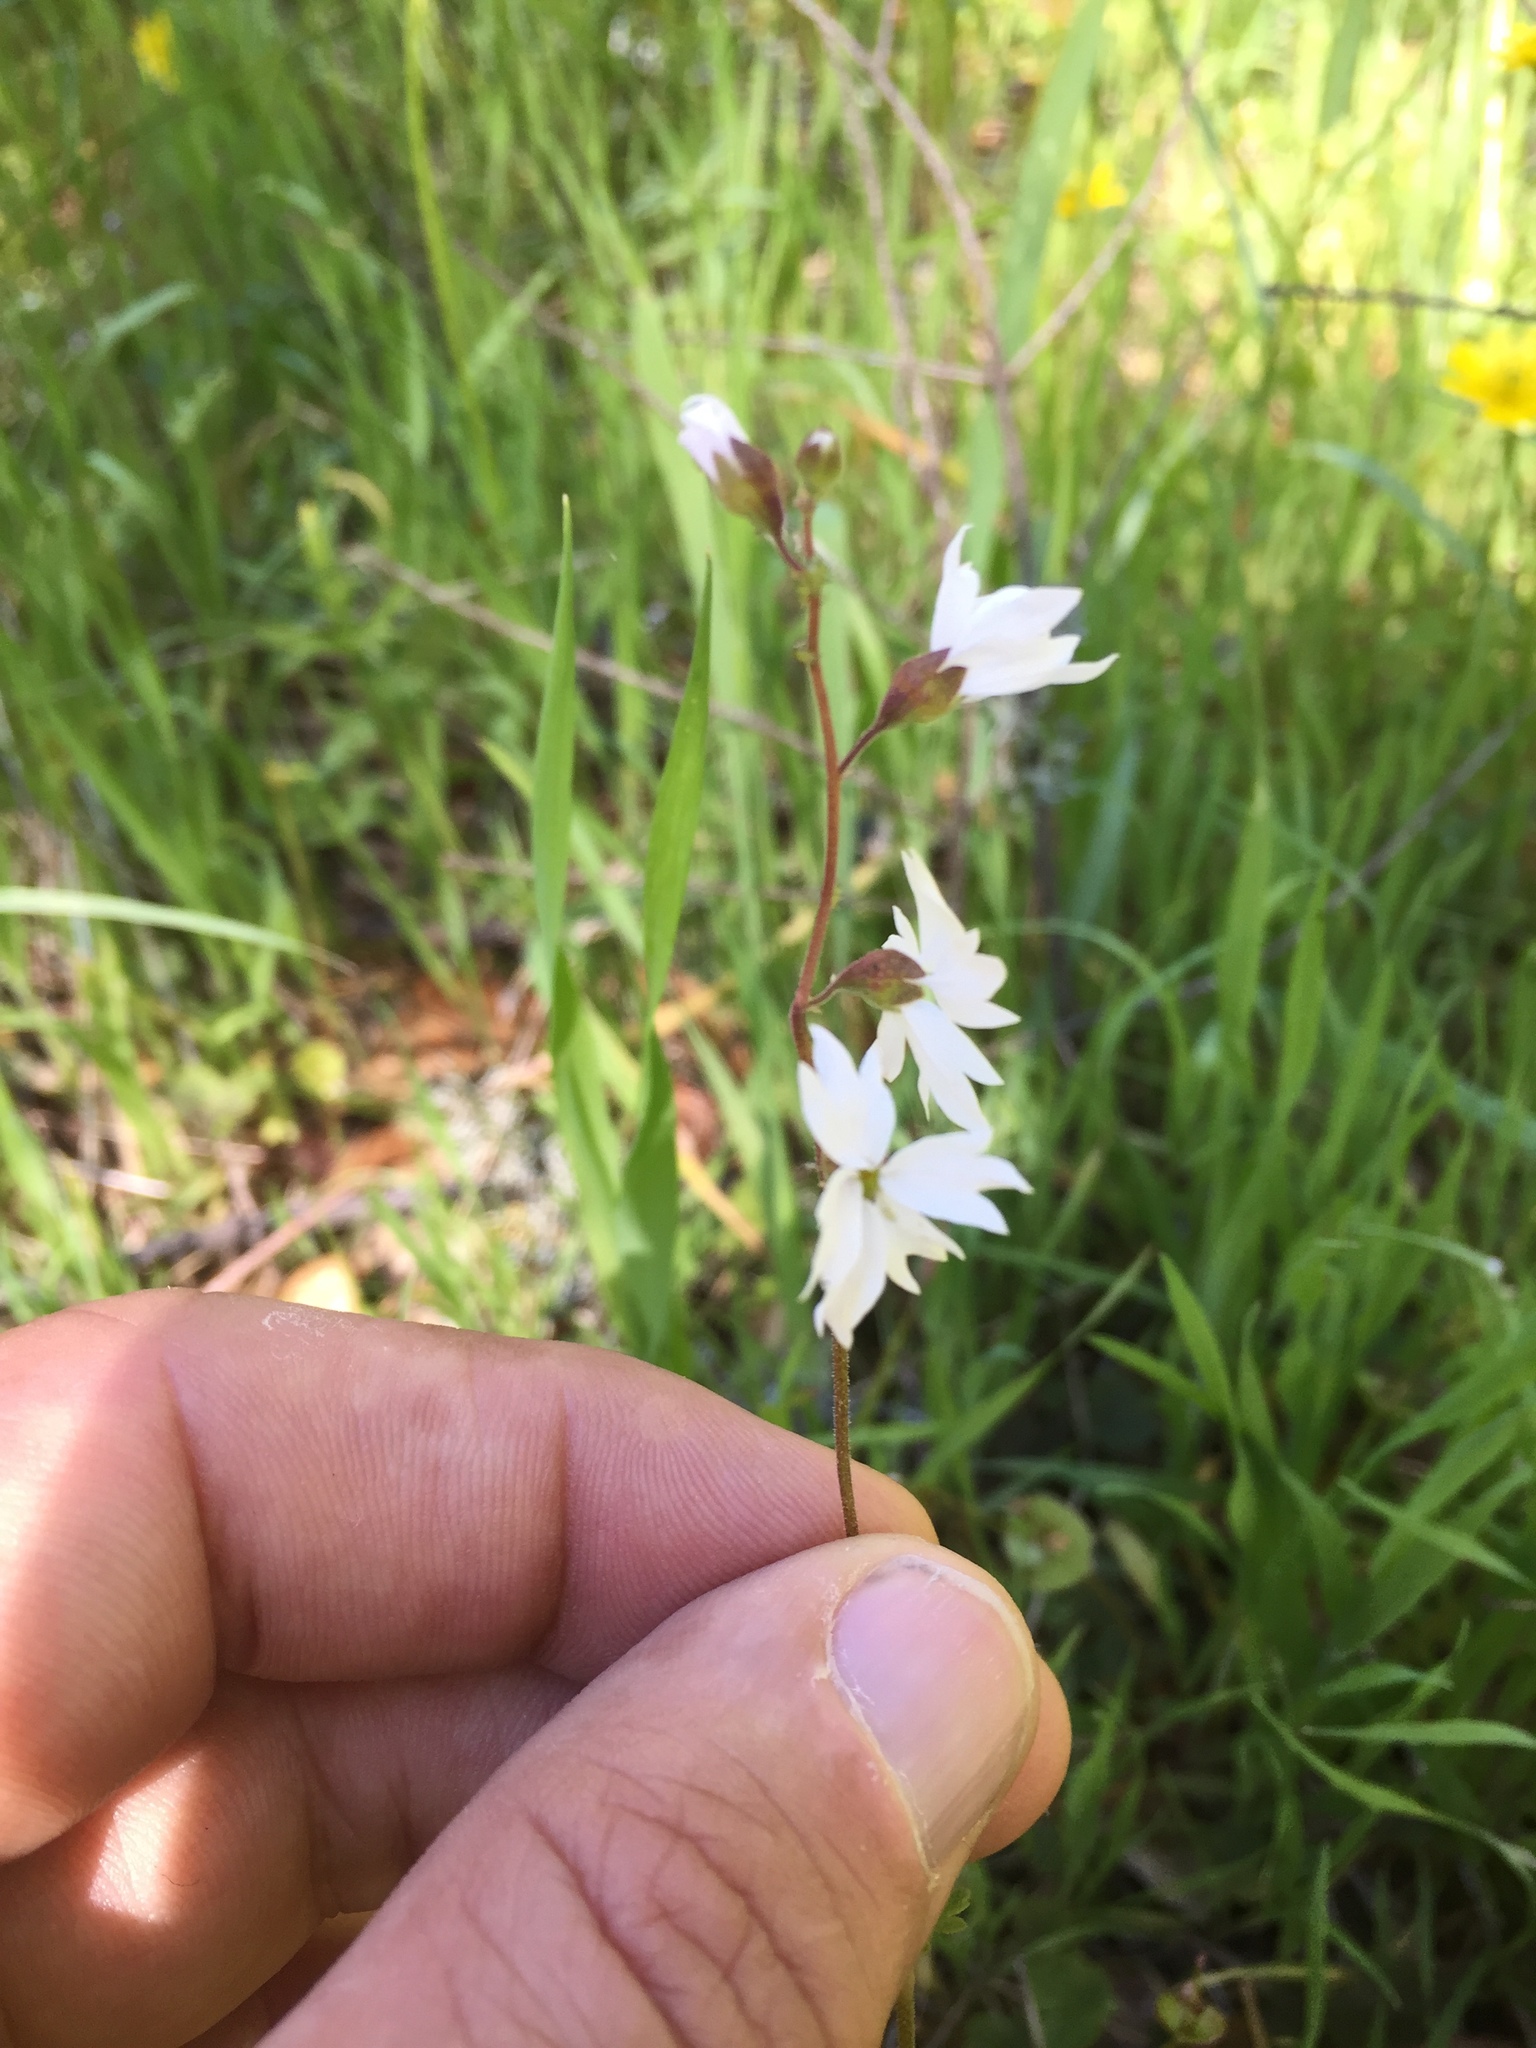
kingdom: Plantae
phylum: Tracheophyta
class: Magnoliopsida
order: Saxifragales
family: Saxifragaceae
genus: Lithophragma
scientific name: Lithophragma affine
